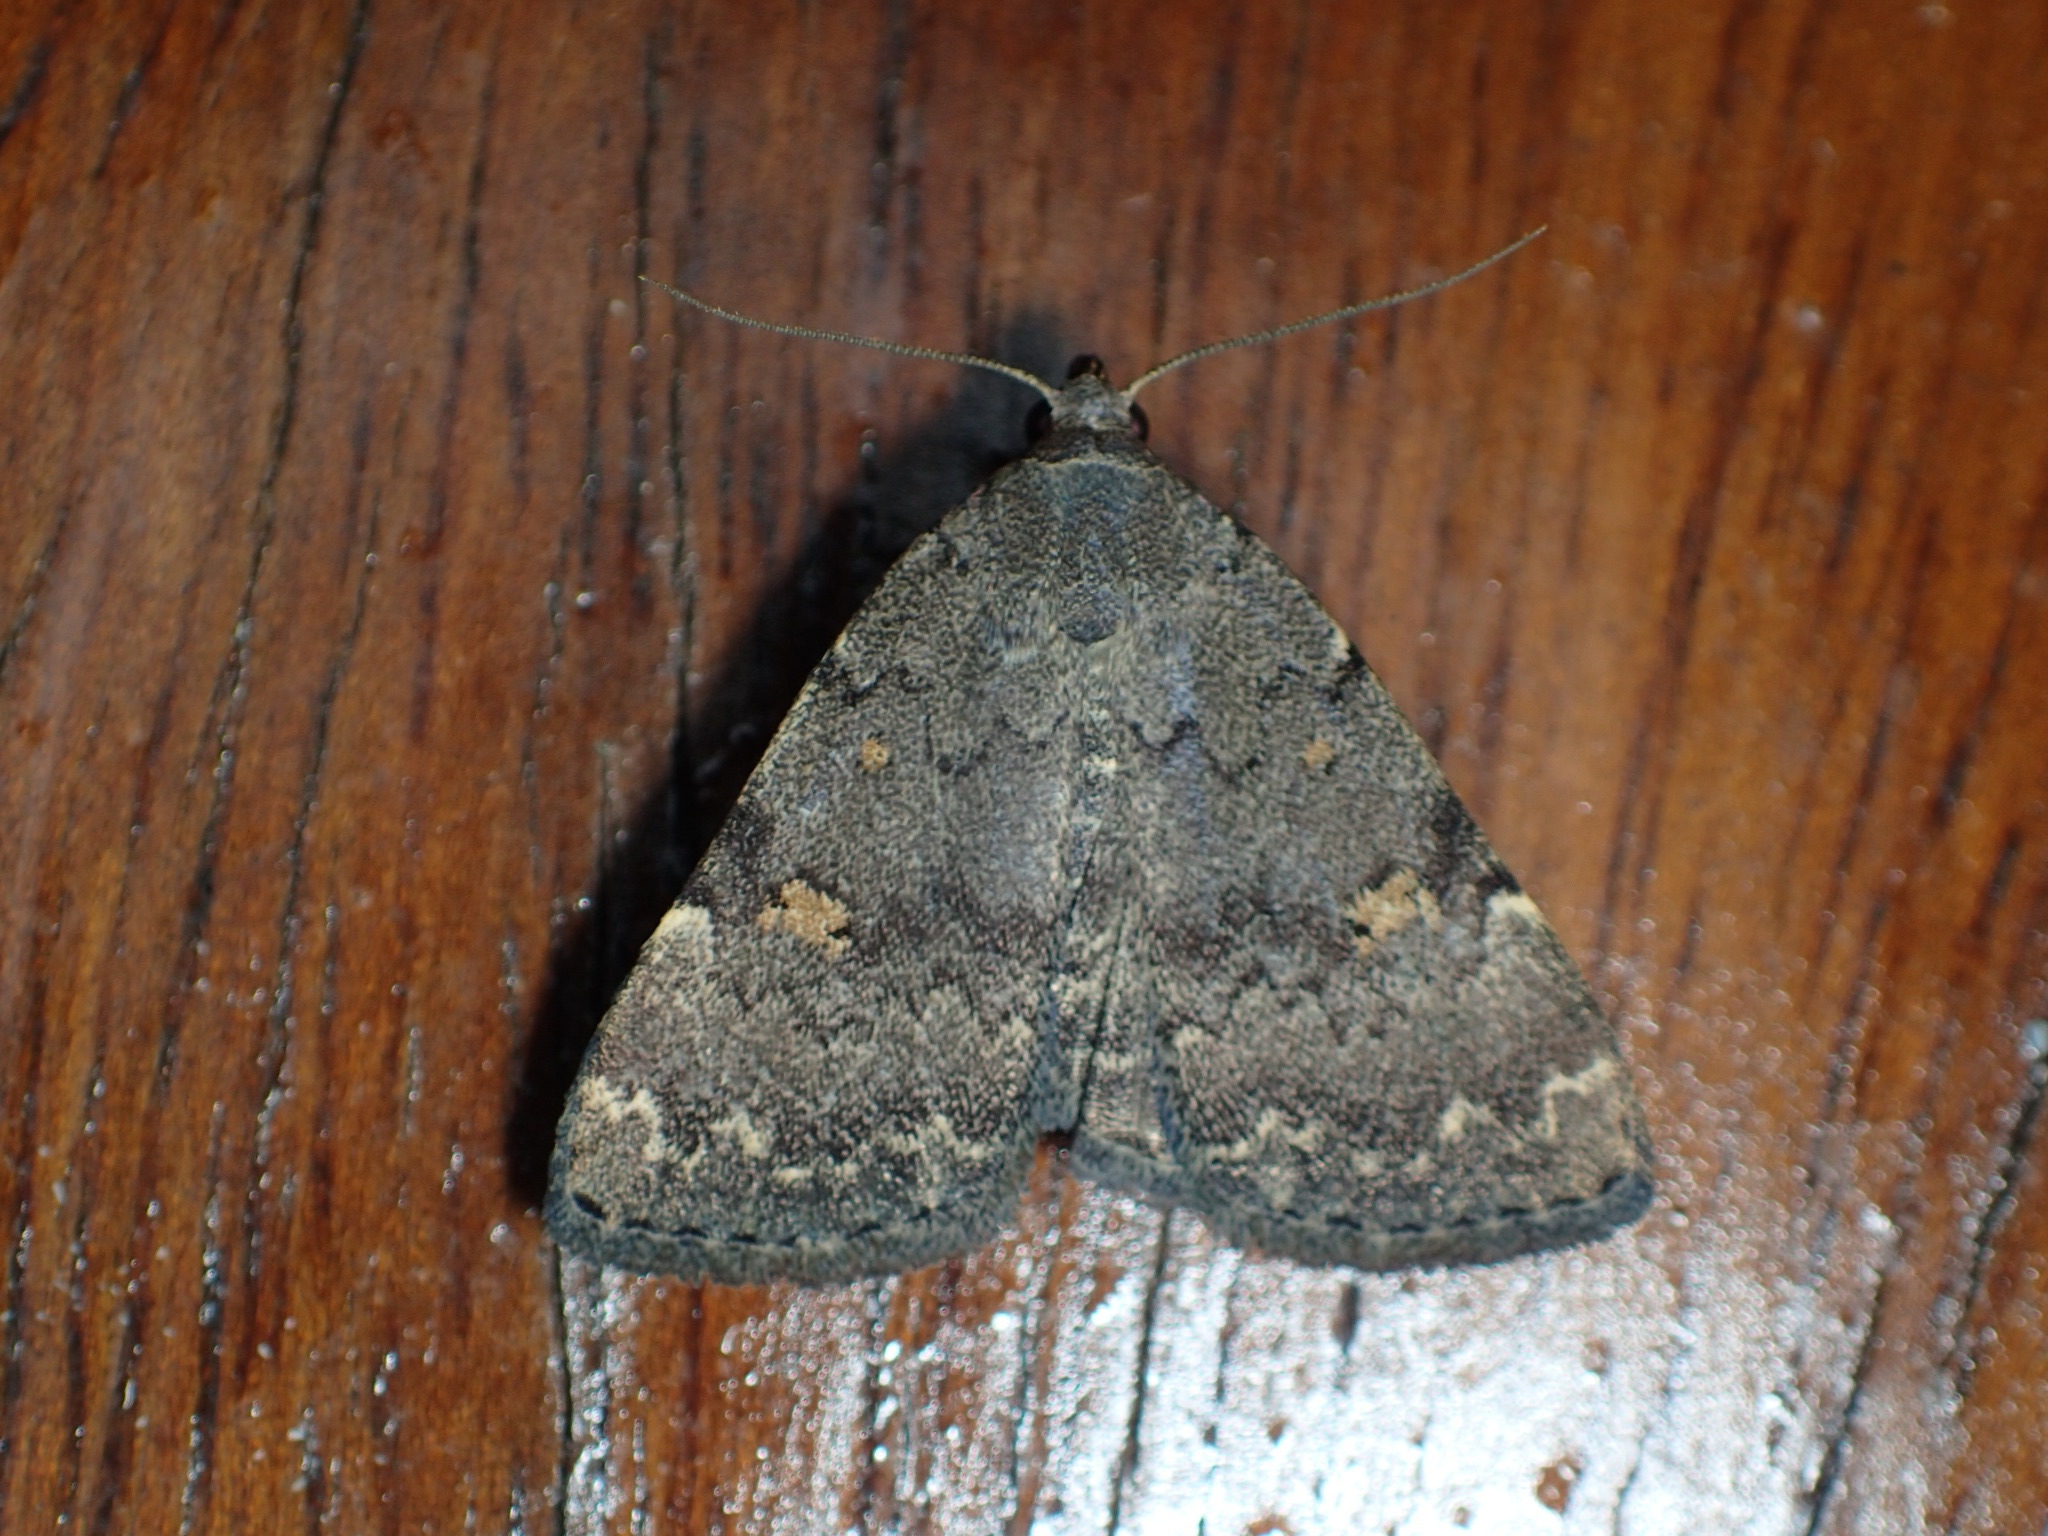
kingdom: Animalia
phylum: Arthropoda
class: Insecta
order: Lepidoptera
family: Erebidae
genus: Idia
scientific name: Idia aemula
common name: Common idia moth
